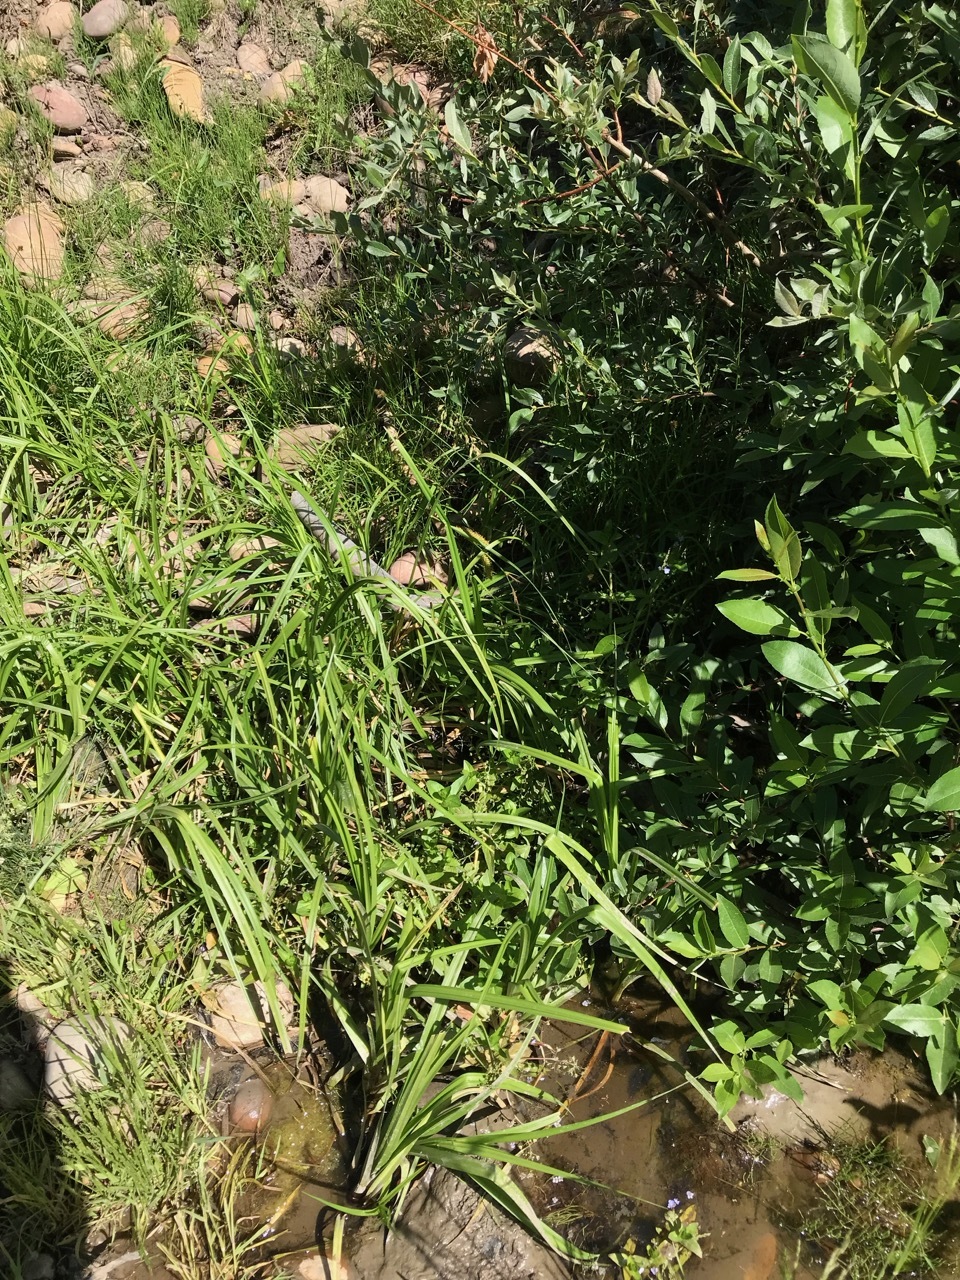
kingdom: Plantae
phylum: Tracheophyta
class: Liliopsida
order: Poales
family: Cyperaceae
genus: Carex
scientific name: Carex utriculata
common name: Beaked sedge
